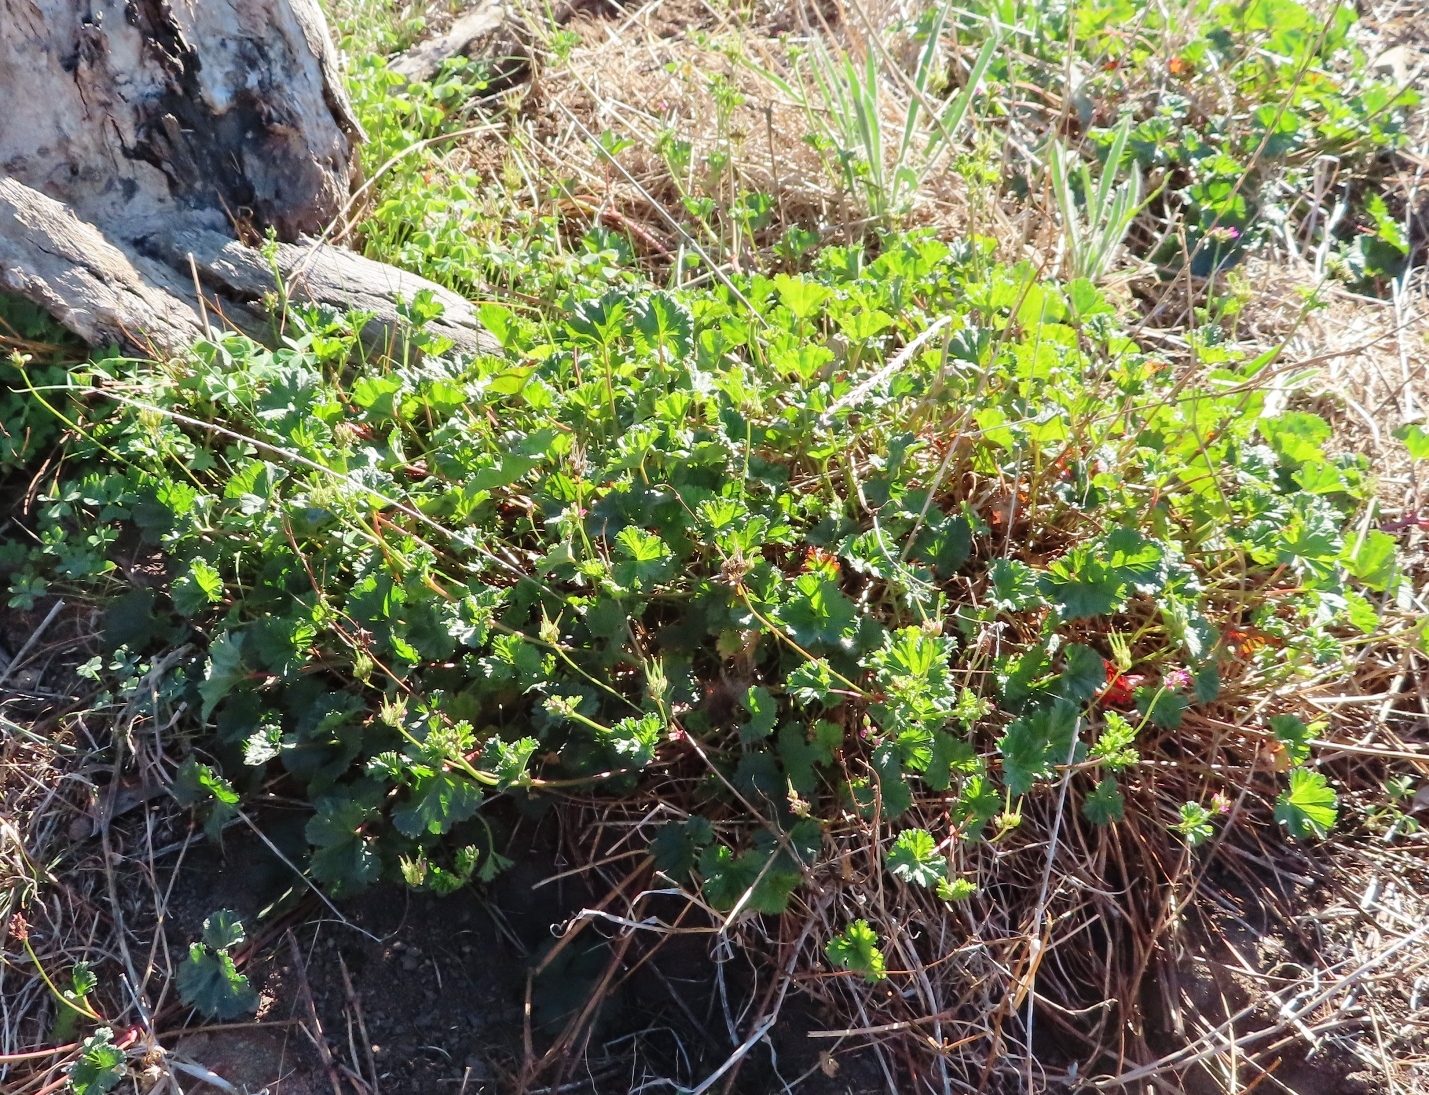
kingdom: Plantae
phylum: Tracheophyta
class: Magnoliopsida
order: Geraniales
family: Geraniaceae
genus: Pelargonium
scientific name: Pelargonium grossularioides
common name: Gooseberry geranium
